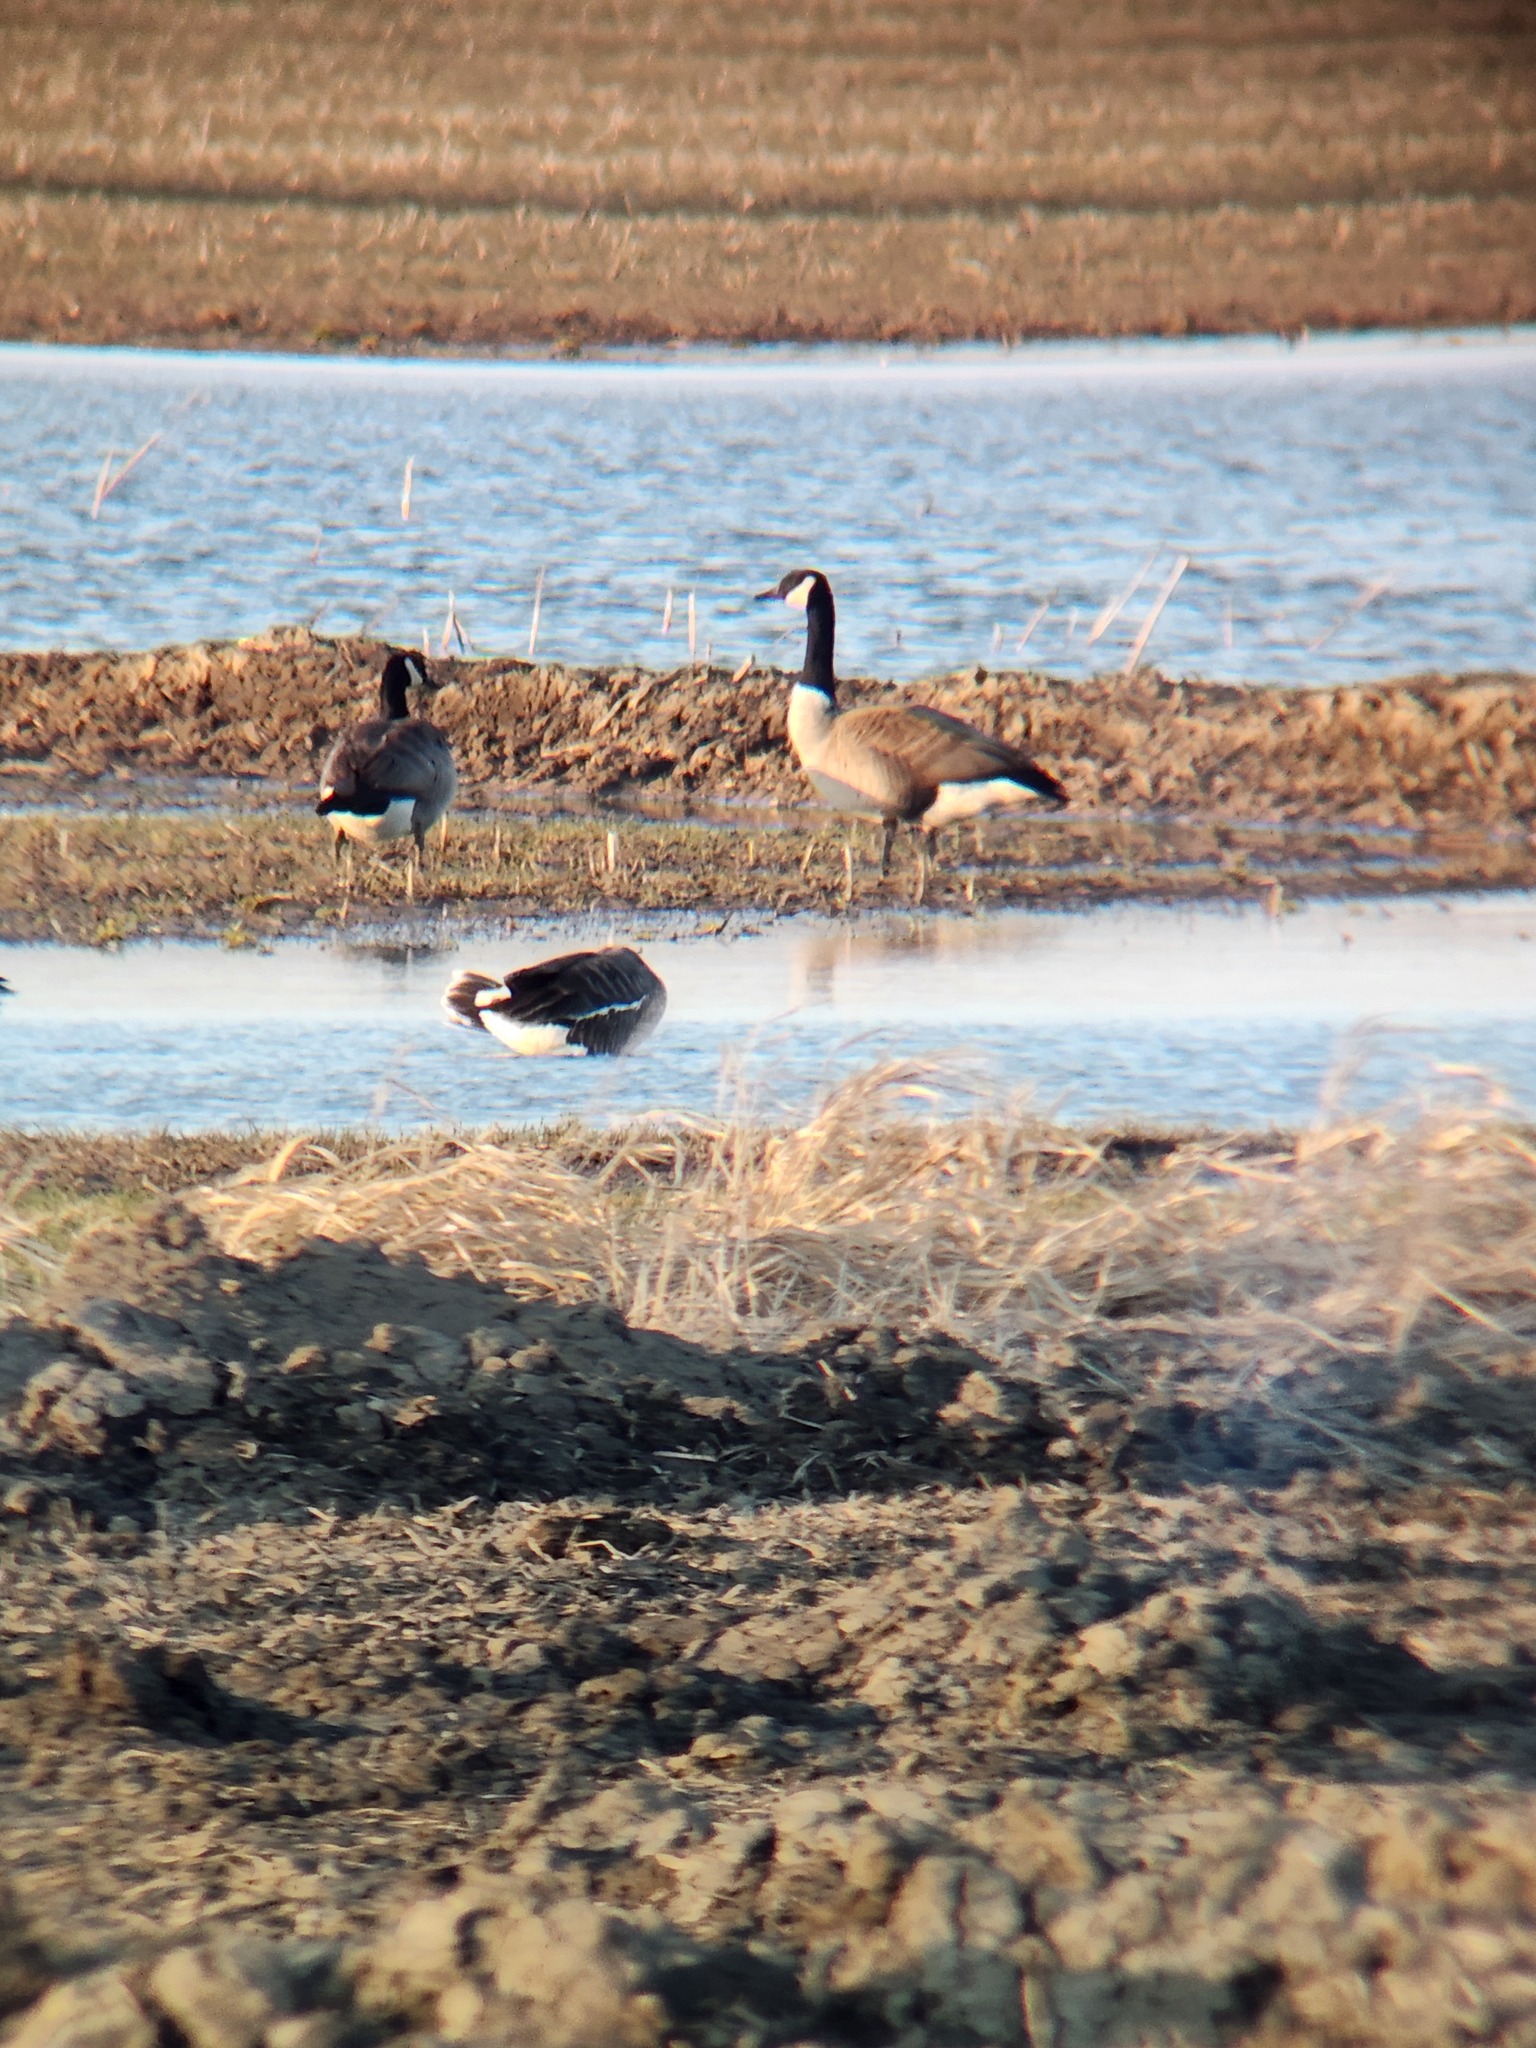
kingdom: Animalia
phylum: Chordata
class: Aves
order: Anseriformes
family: Anatidae
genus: Branta
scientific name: Branta canadensis
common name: Canada goose
